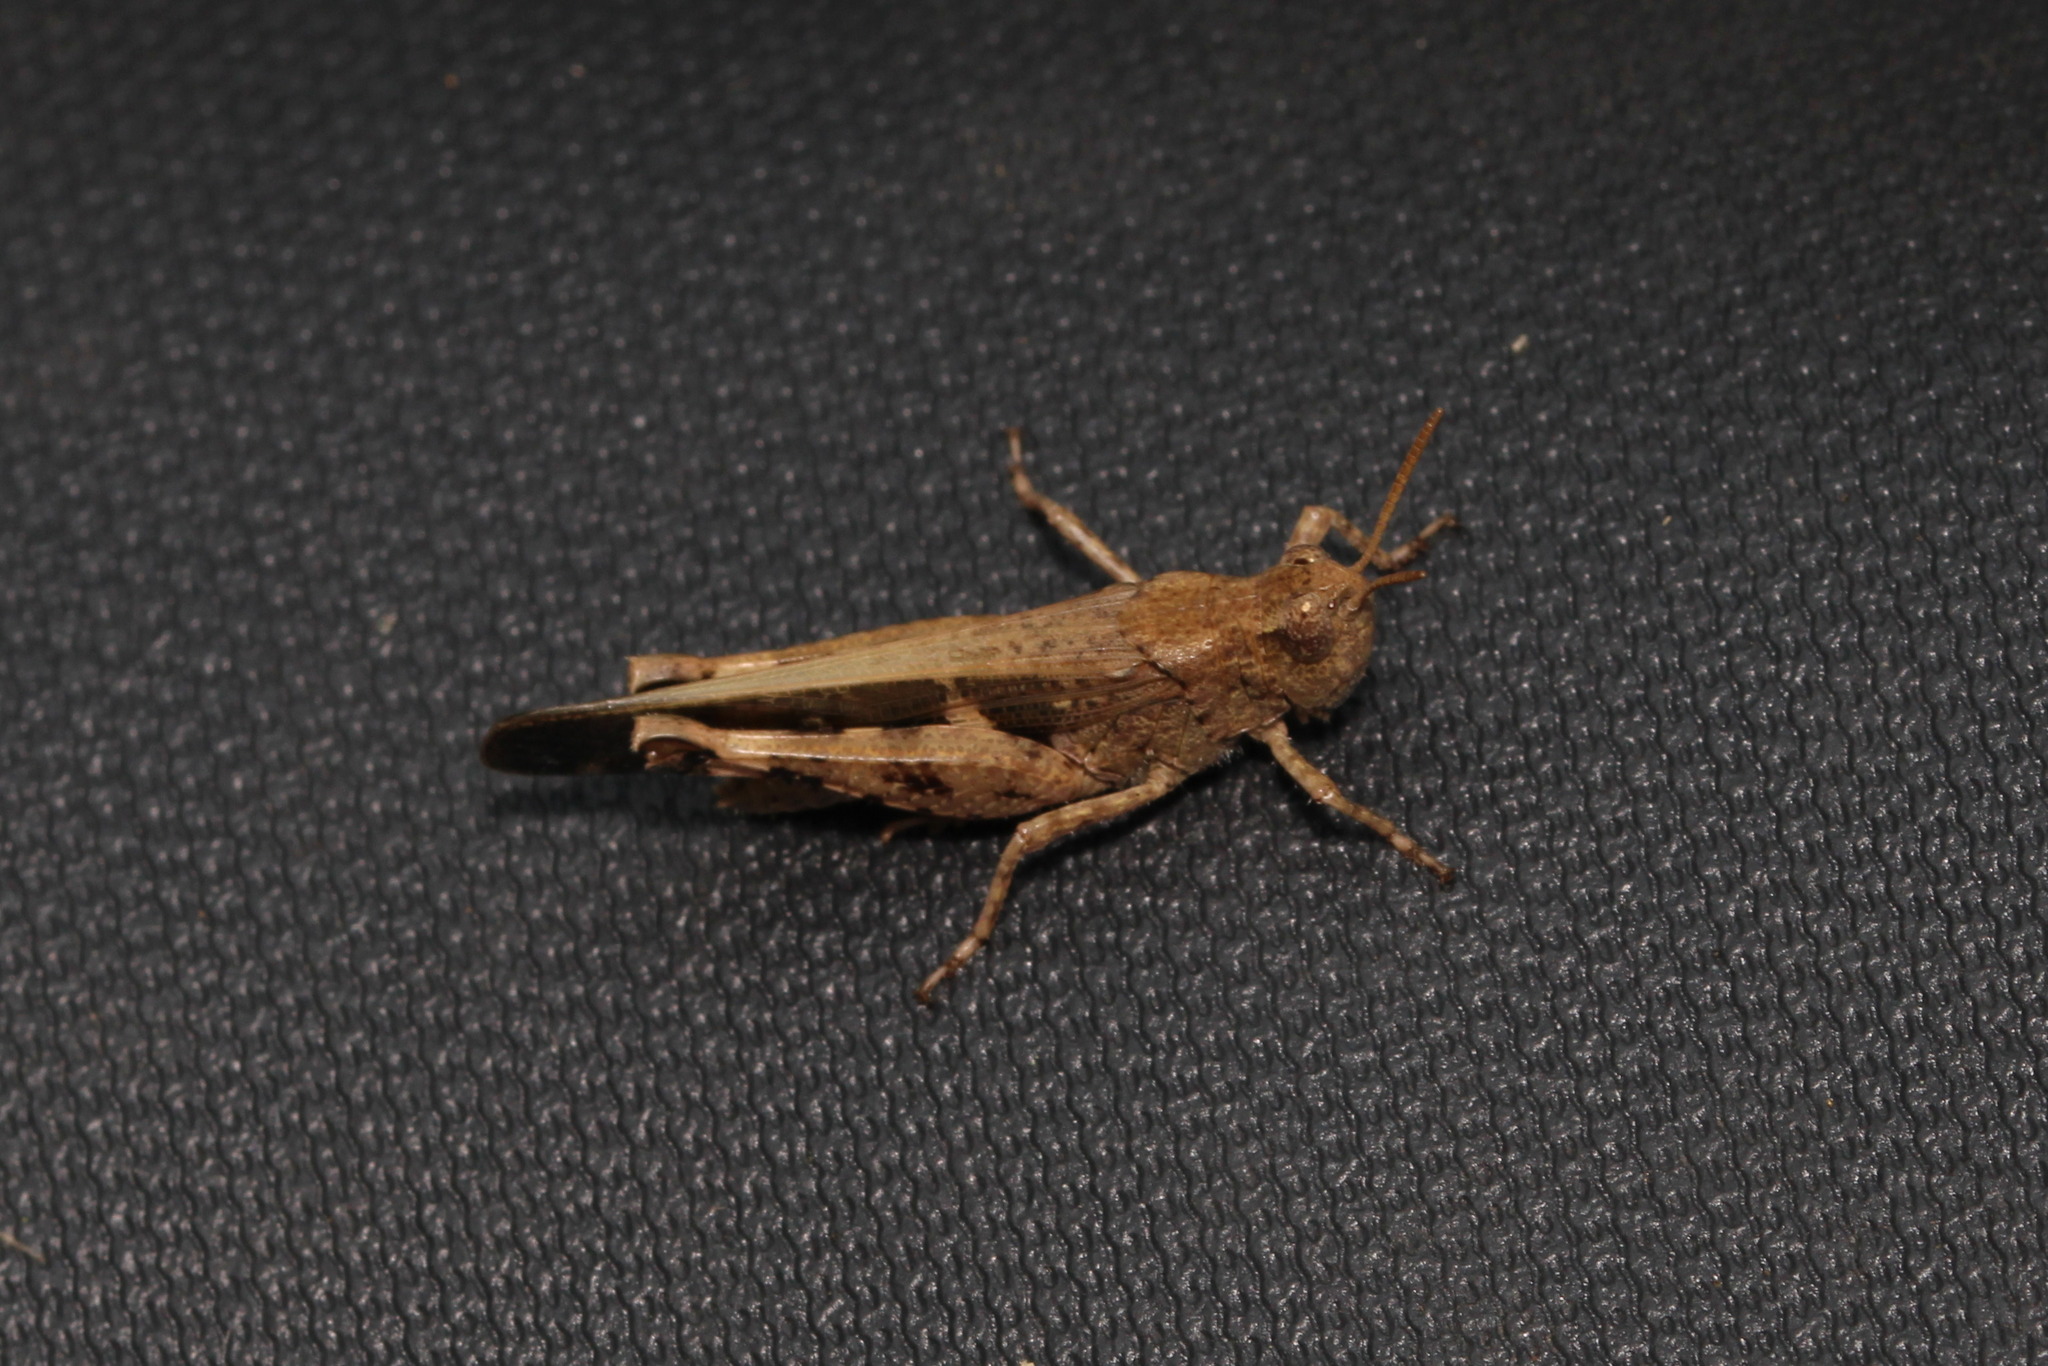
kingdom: Animalia
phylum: Arthropoda
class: Insecta
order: Orthoptera
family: Acrididae
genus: Aiolopus
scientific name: Aiolopus strepens
